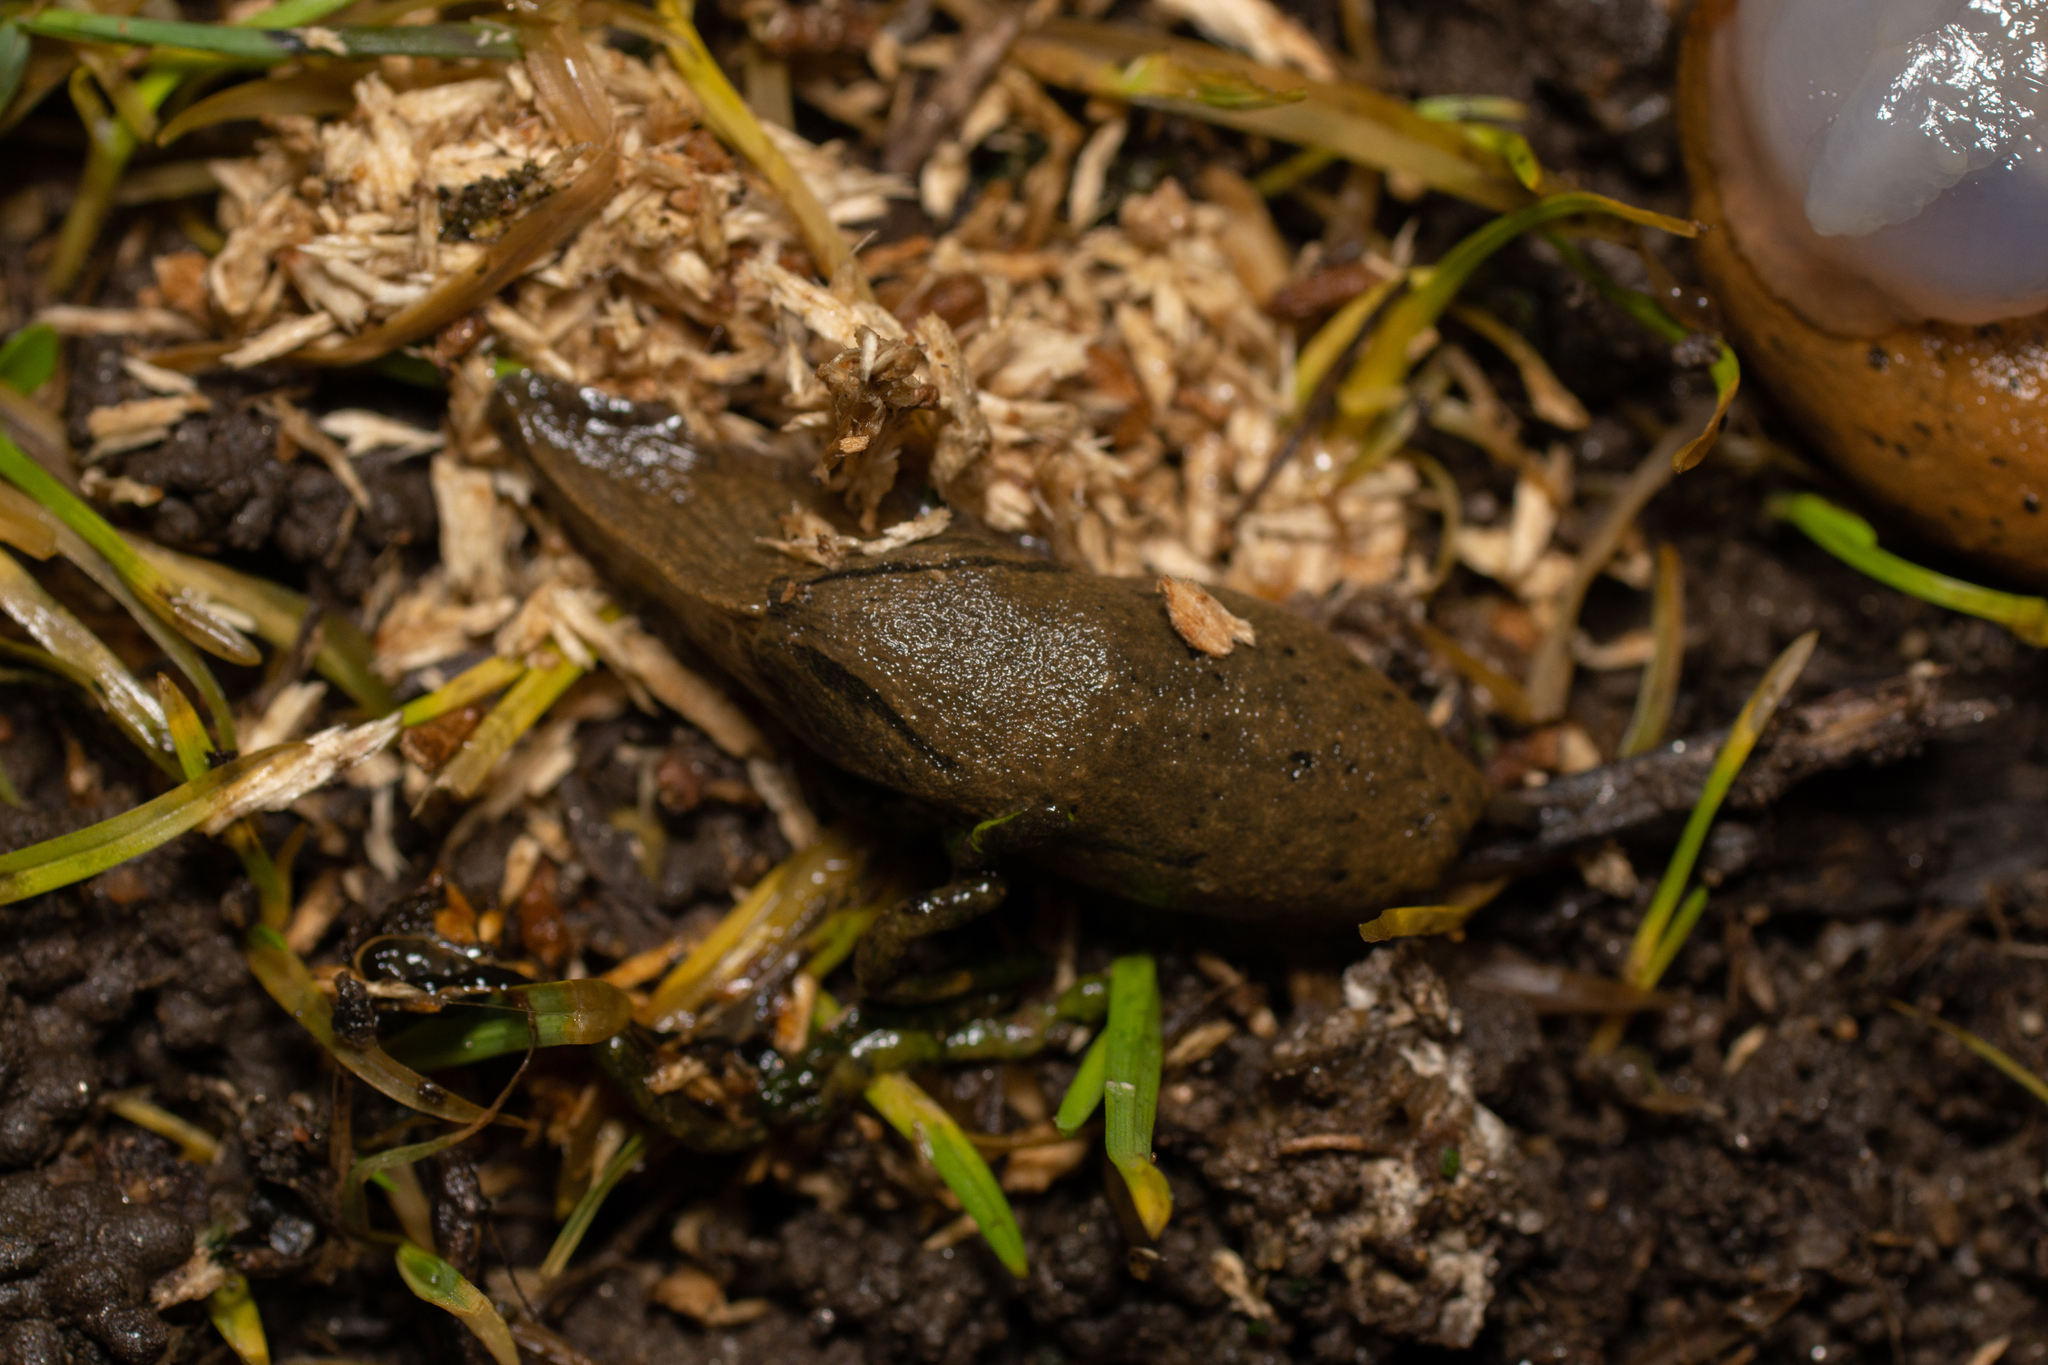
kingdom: Animalia
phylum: Mollusca
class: Gastropoda
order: Stylommatophora
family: Parmacellidae
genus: Drusia
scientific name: Drusia valenciennii
